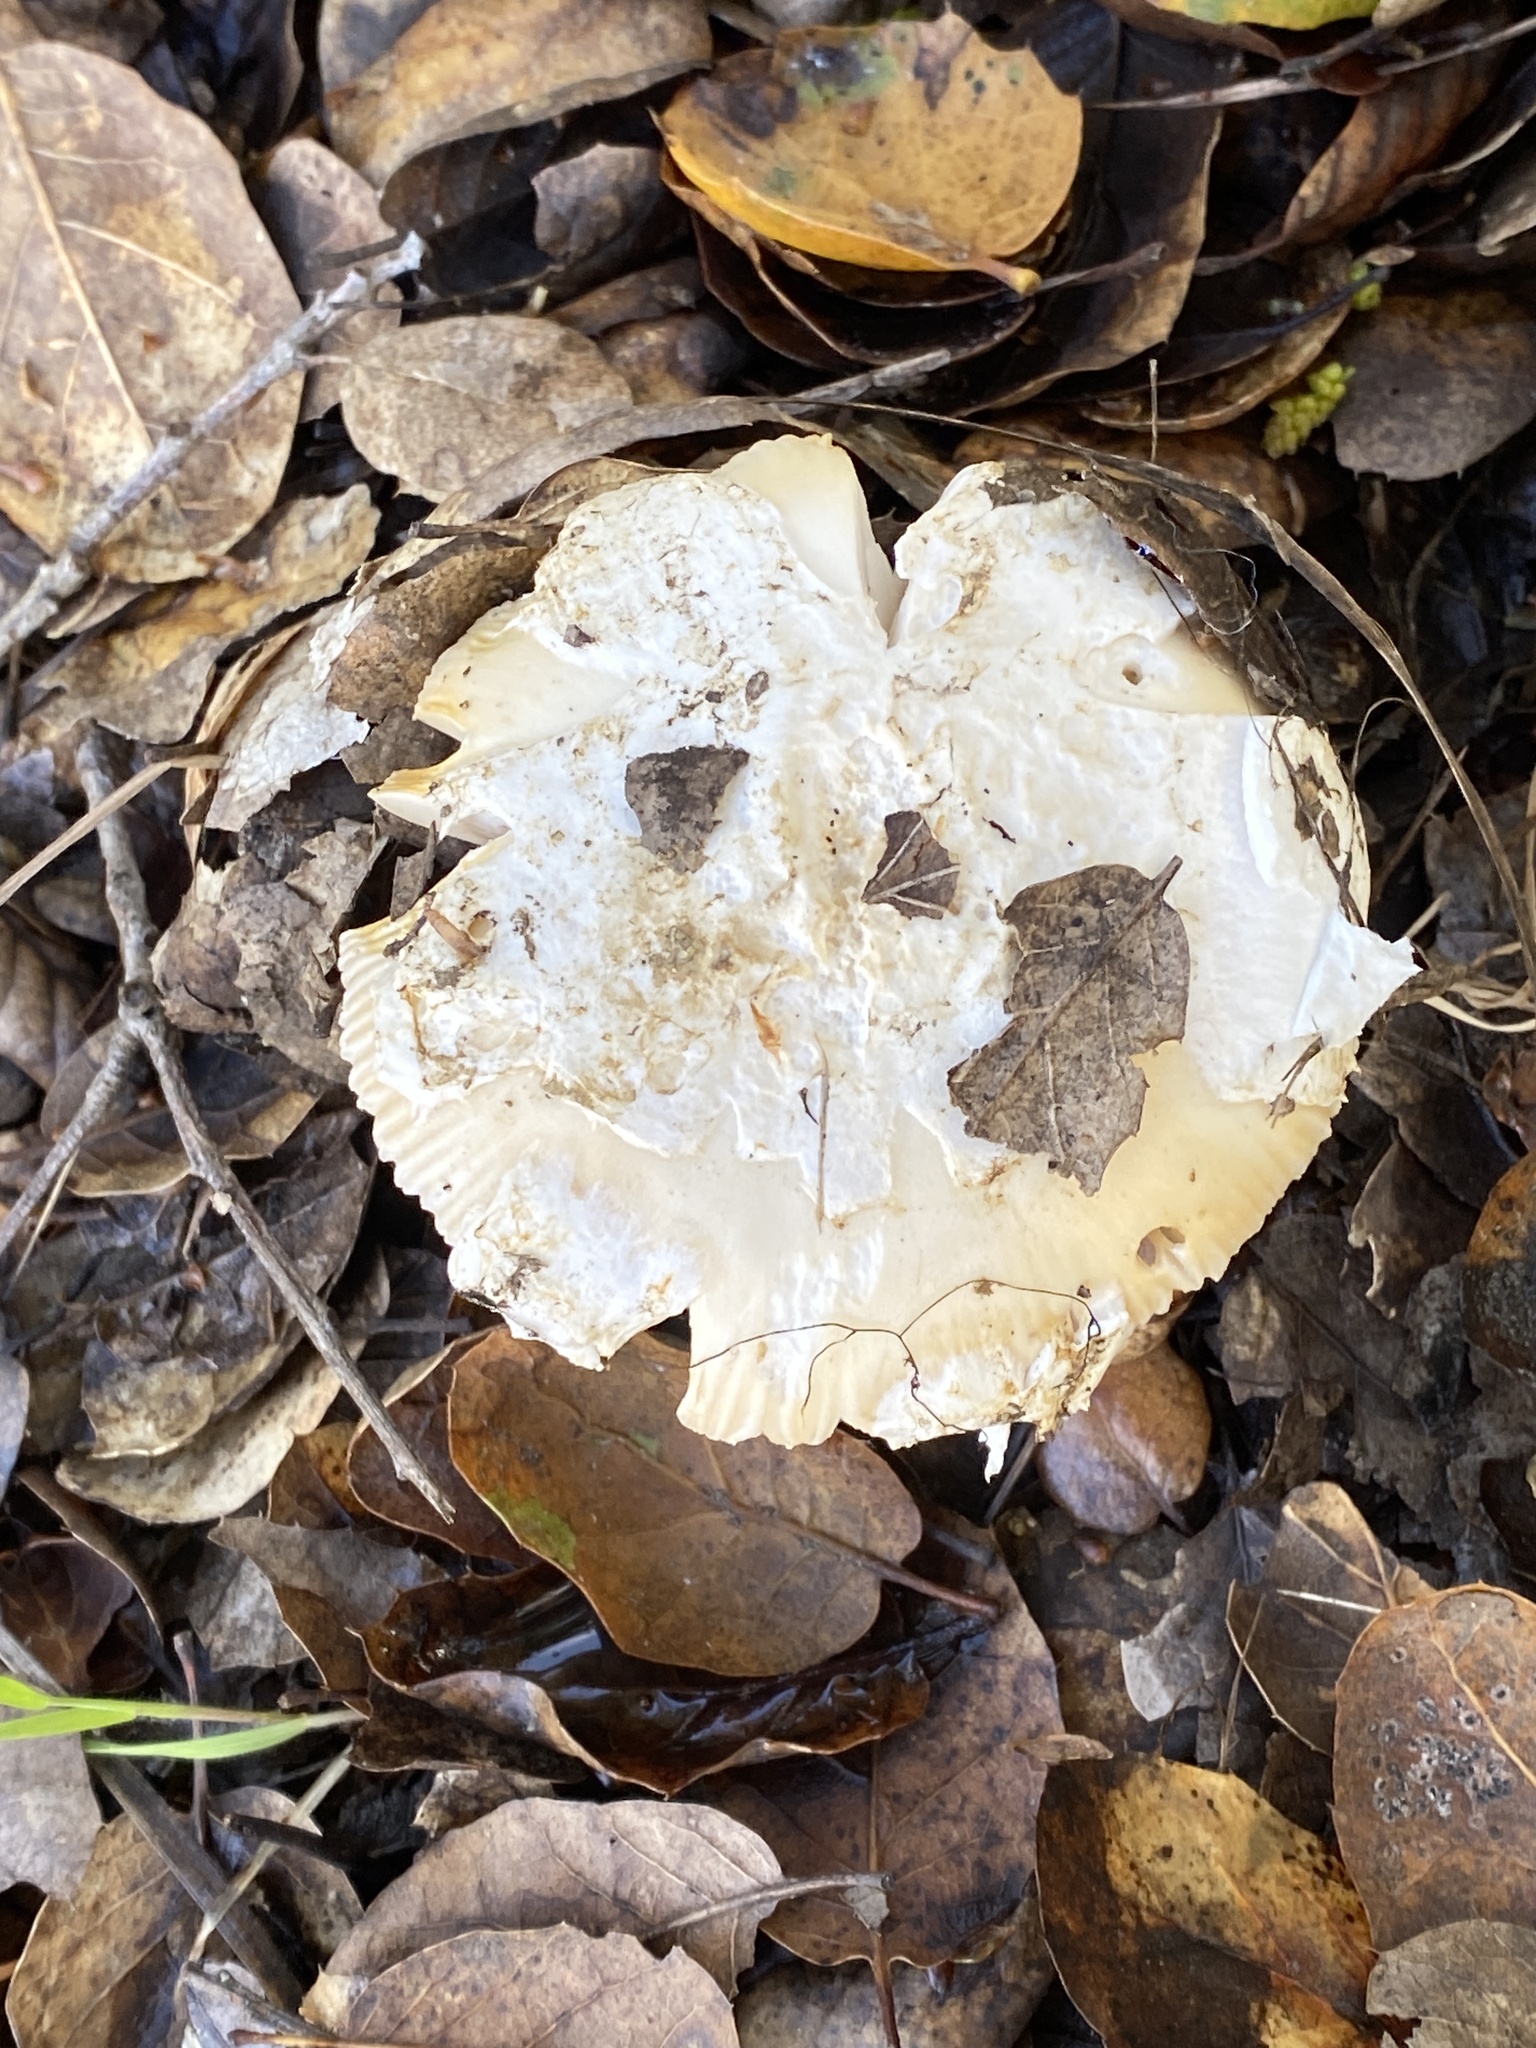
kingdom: Fungi
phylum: Basidiomycota
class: Agaricomycetes
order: Agaricales
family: Amanitaceae
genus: Amanita
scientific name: Amanita velosa
